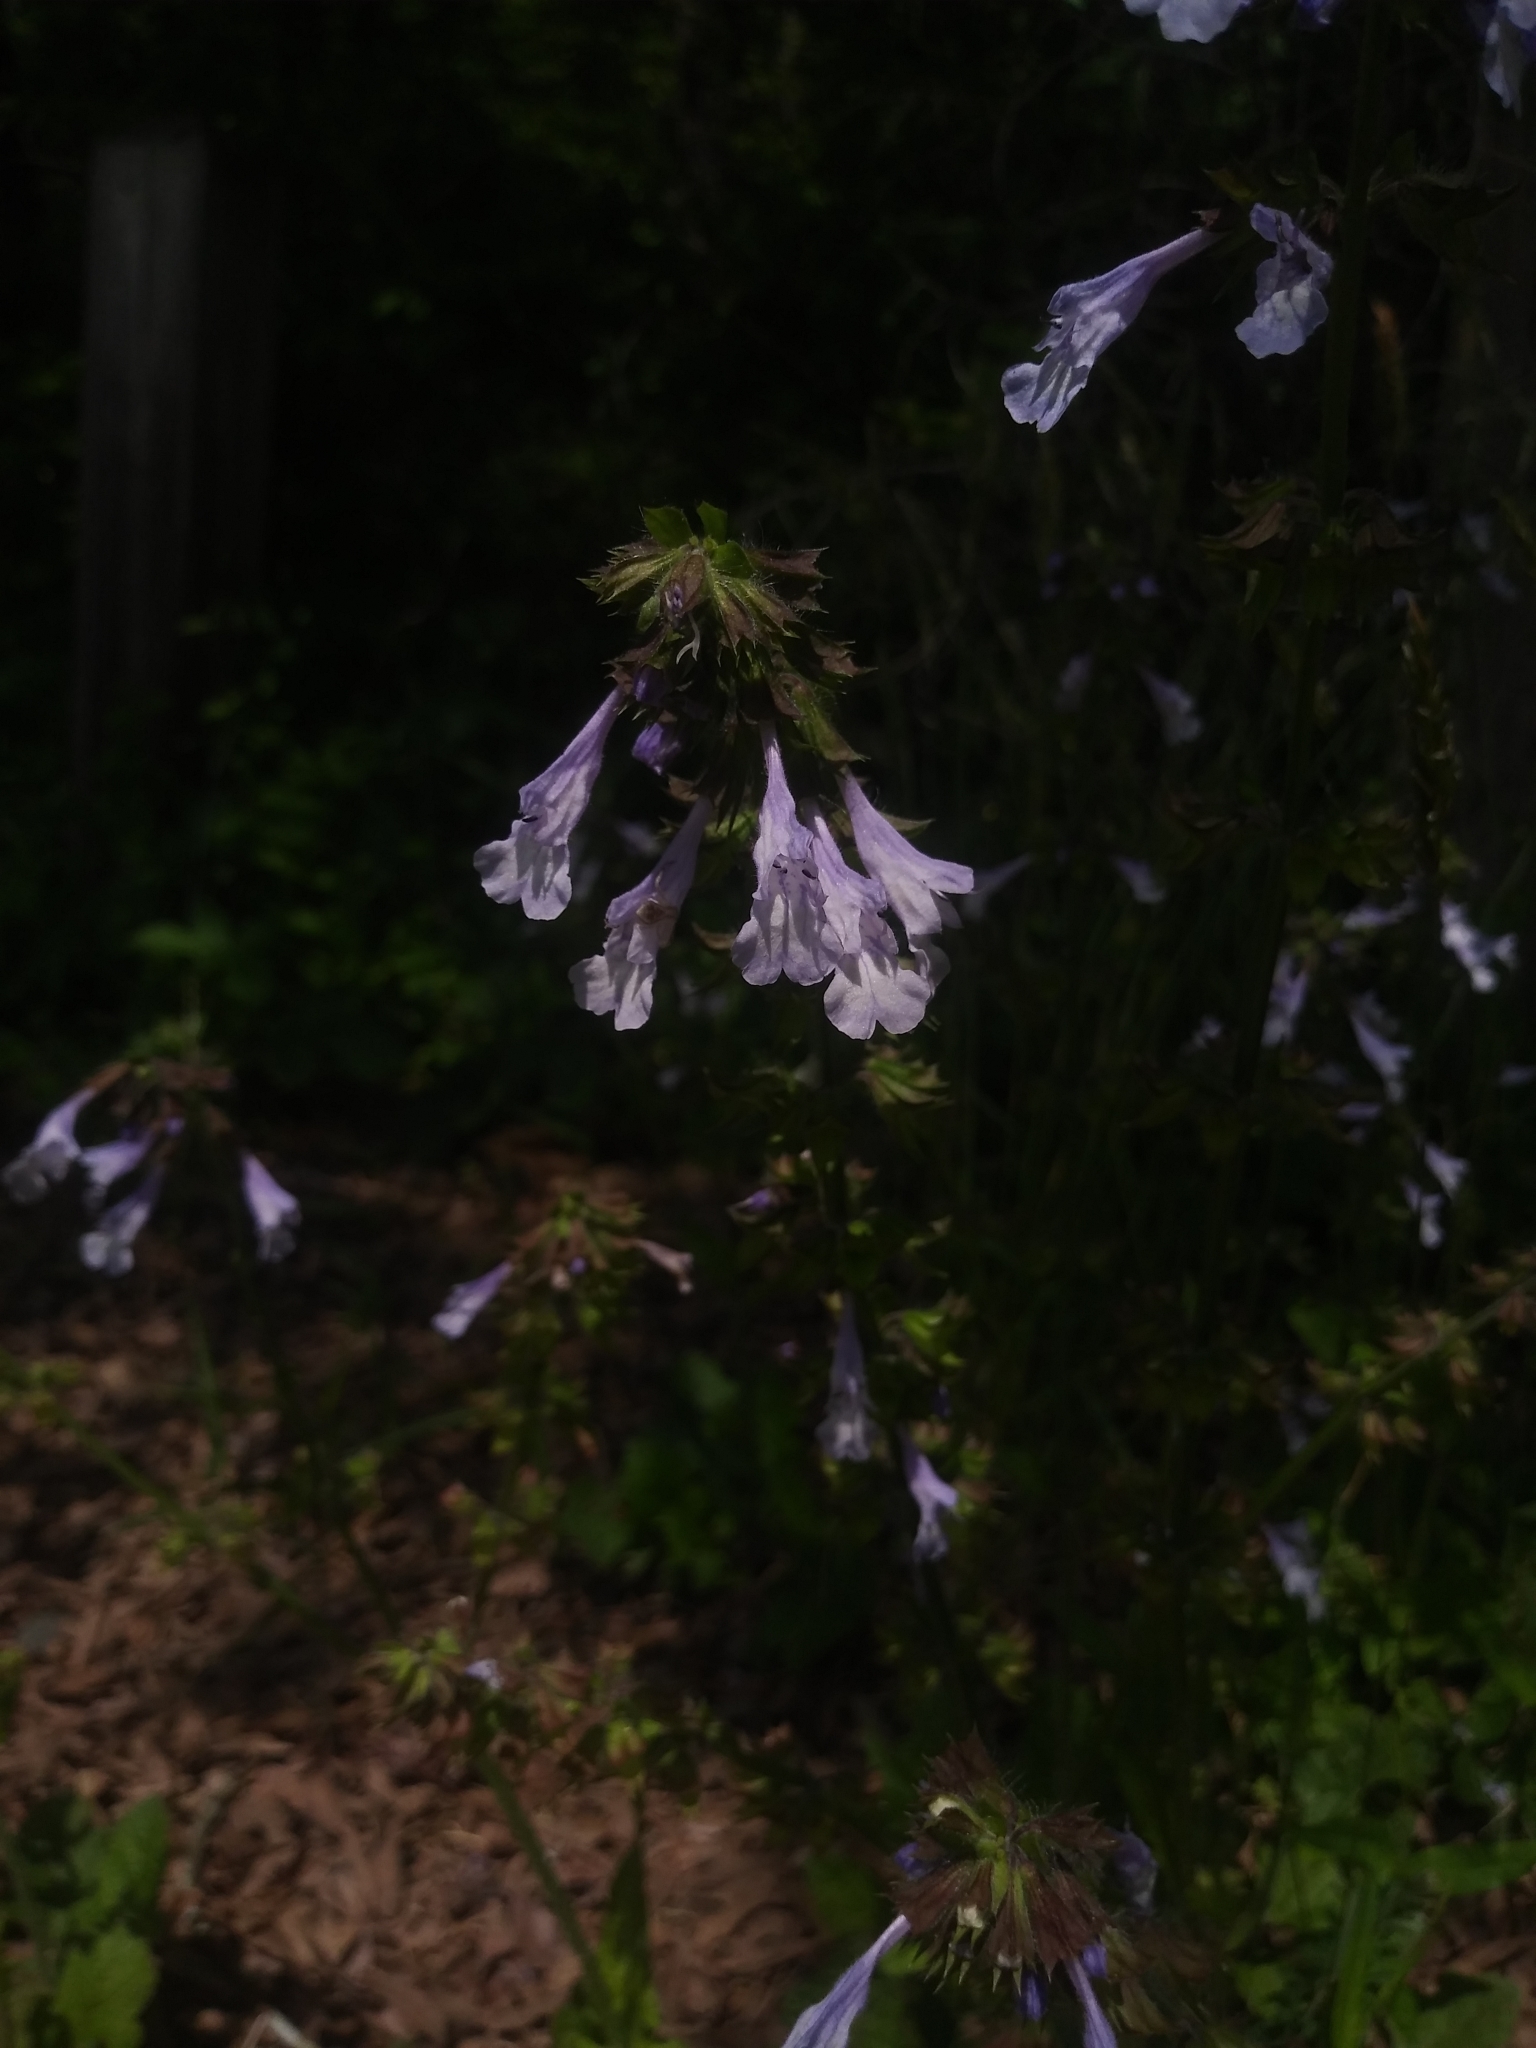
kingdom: Plantae
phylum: Tracheophyta
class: Magnoliopsida
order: Lamiales
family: Lamiaceae
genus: Salvia
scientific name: Salvia lyrata
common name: Cancerweed
